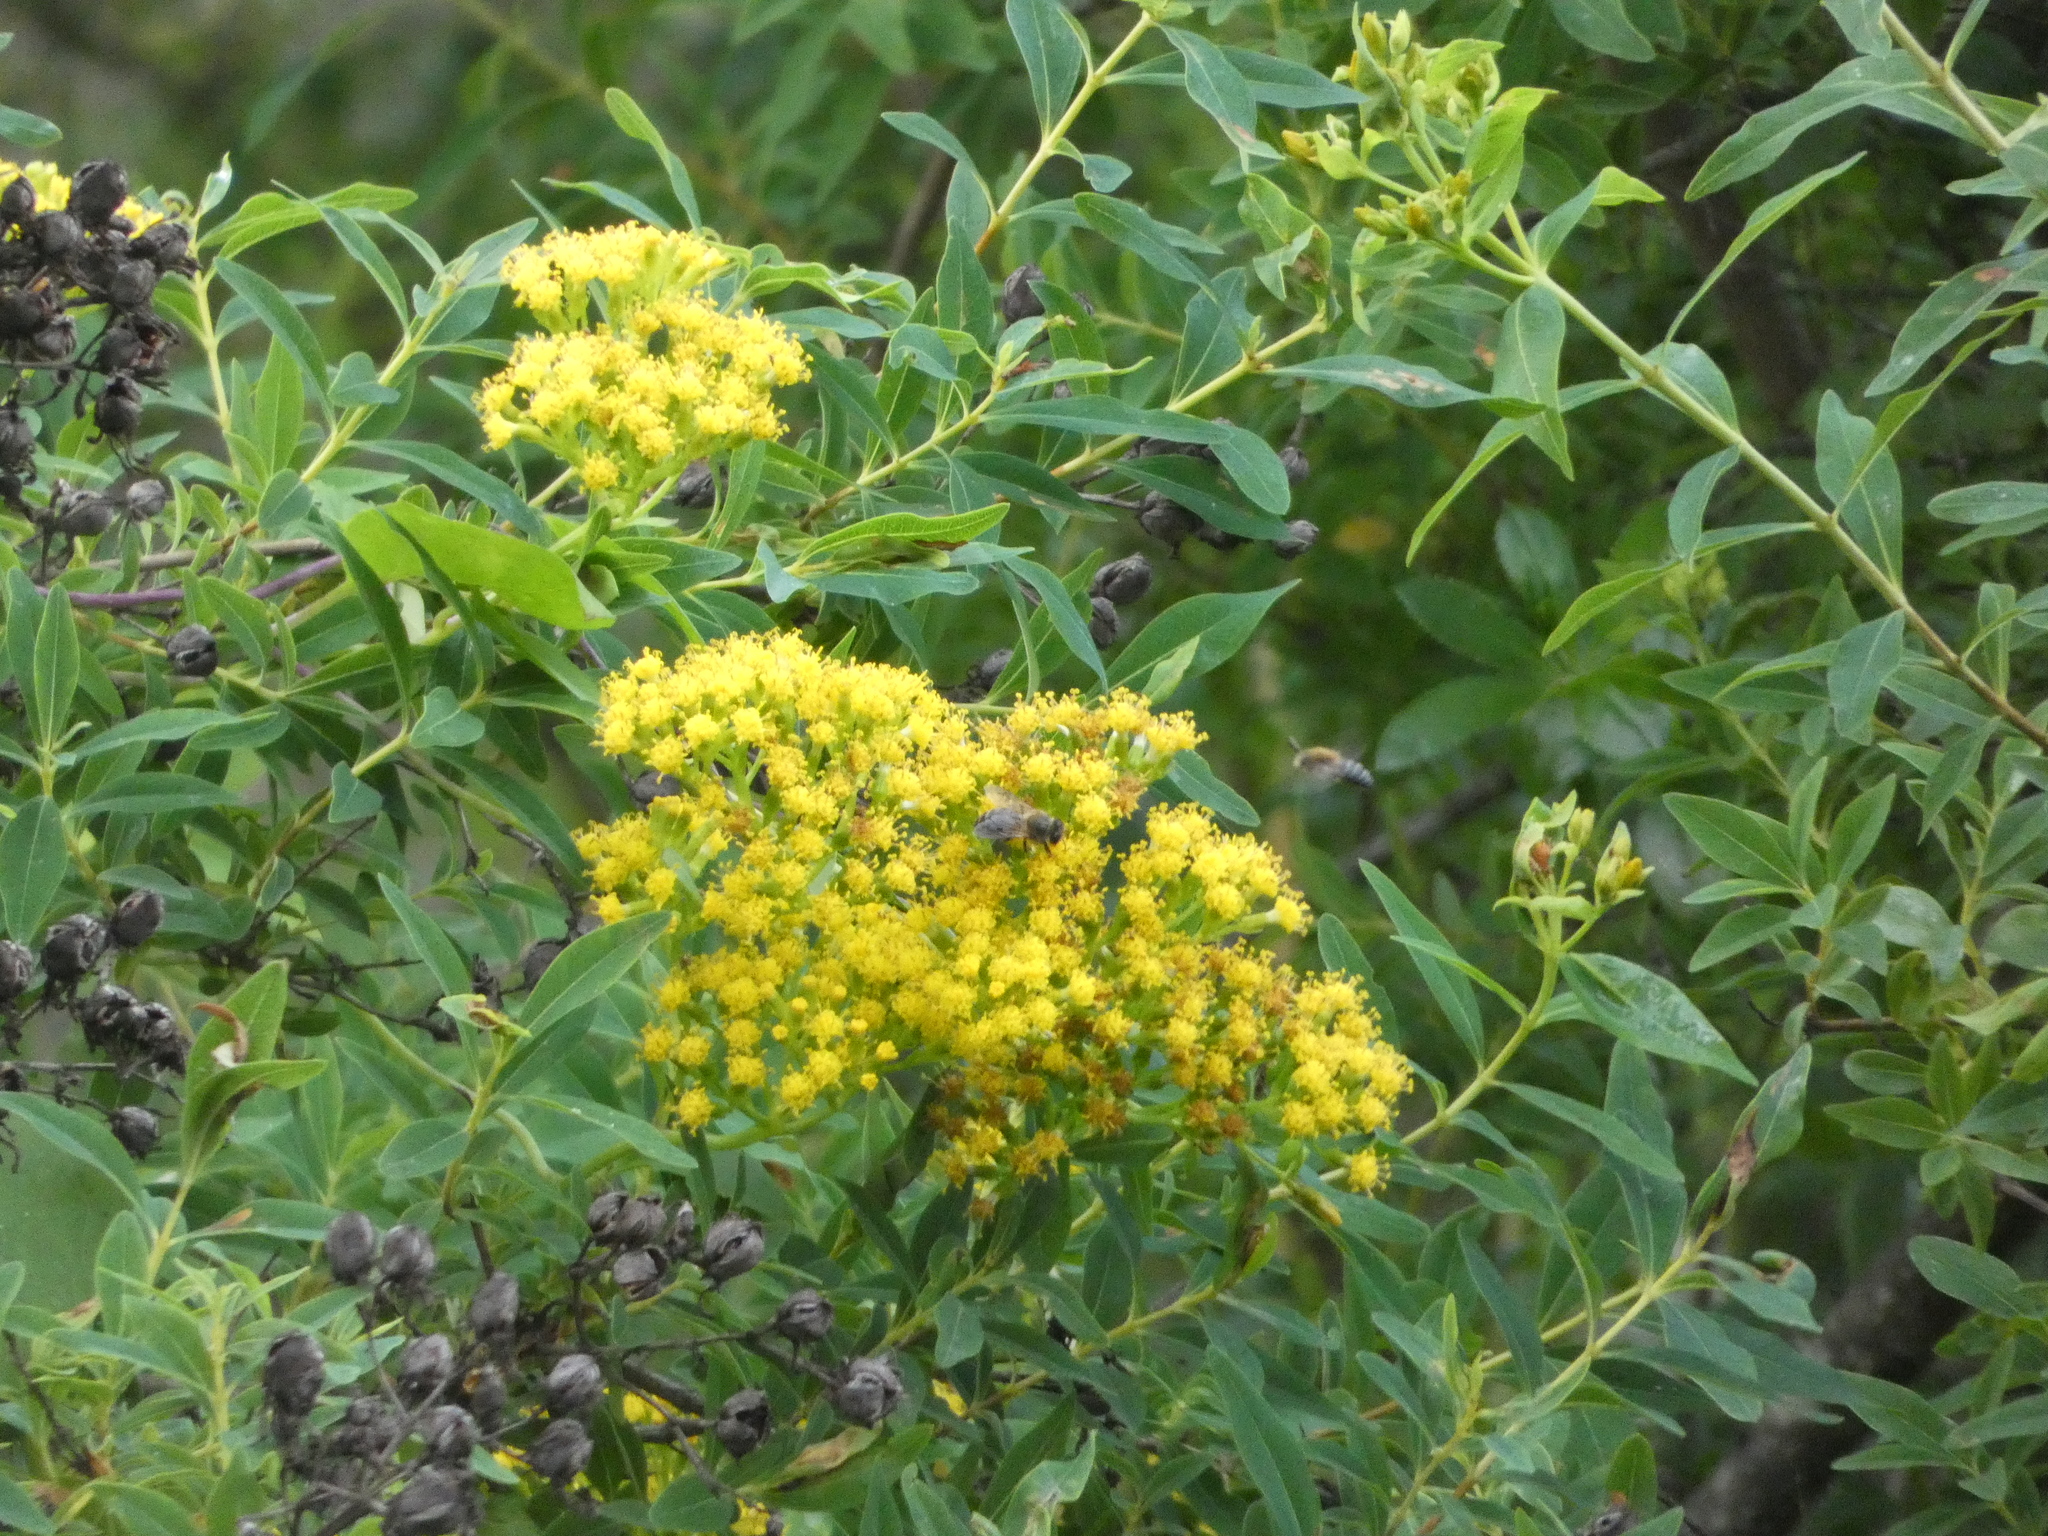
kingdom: Plantae
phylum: Tracheophyta
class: Magnoliopsida
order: Malpighiales
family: Hypericaceae
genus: Hypericum
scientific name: Hypericum canariense
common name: Canary island st. johnswort
